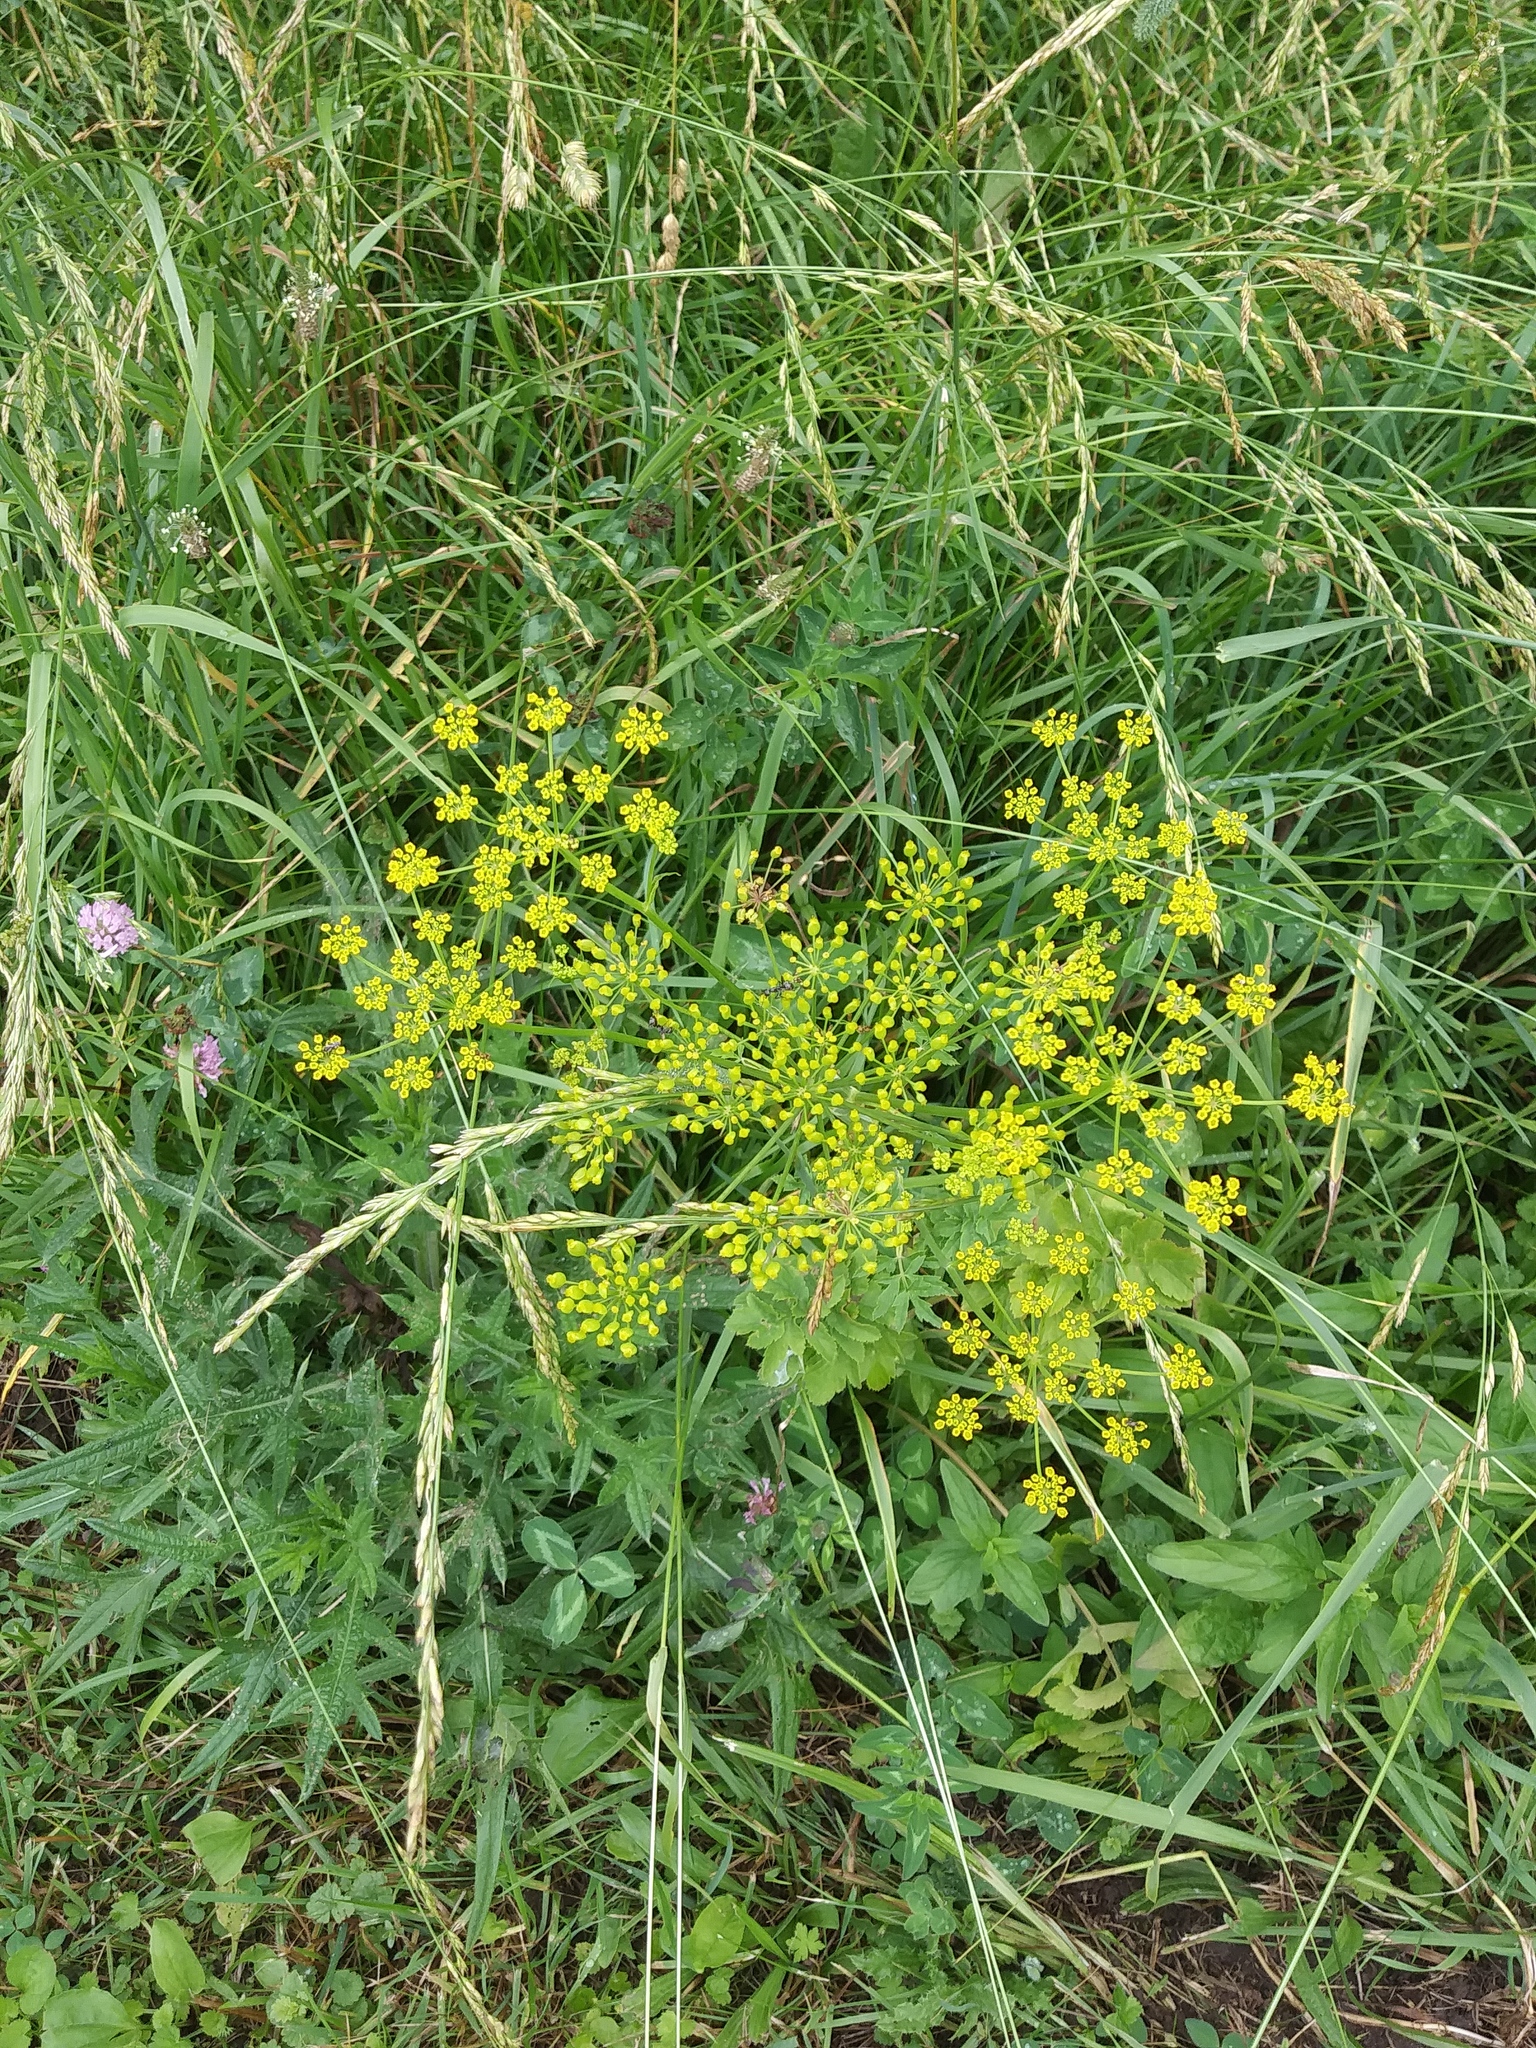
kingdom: Plantae
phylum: Tracheophyta
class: Magnoliopsida
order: Apiales
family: Apiaceae
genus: Pastinaca
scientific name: Pastinaca sativa
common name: Wild parsnip
